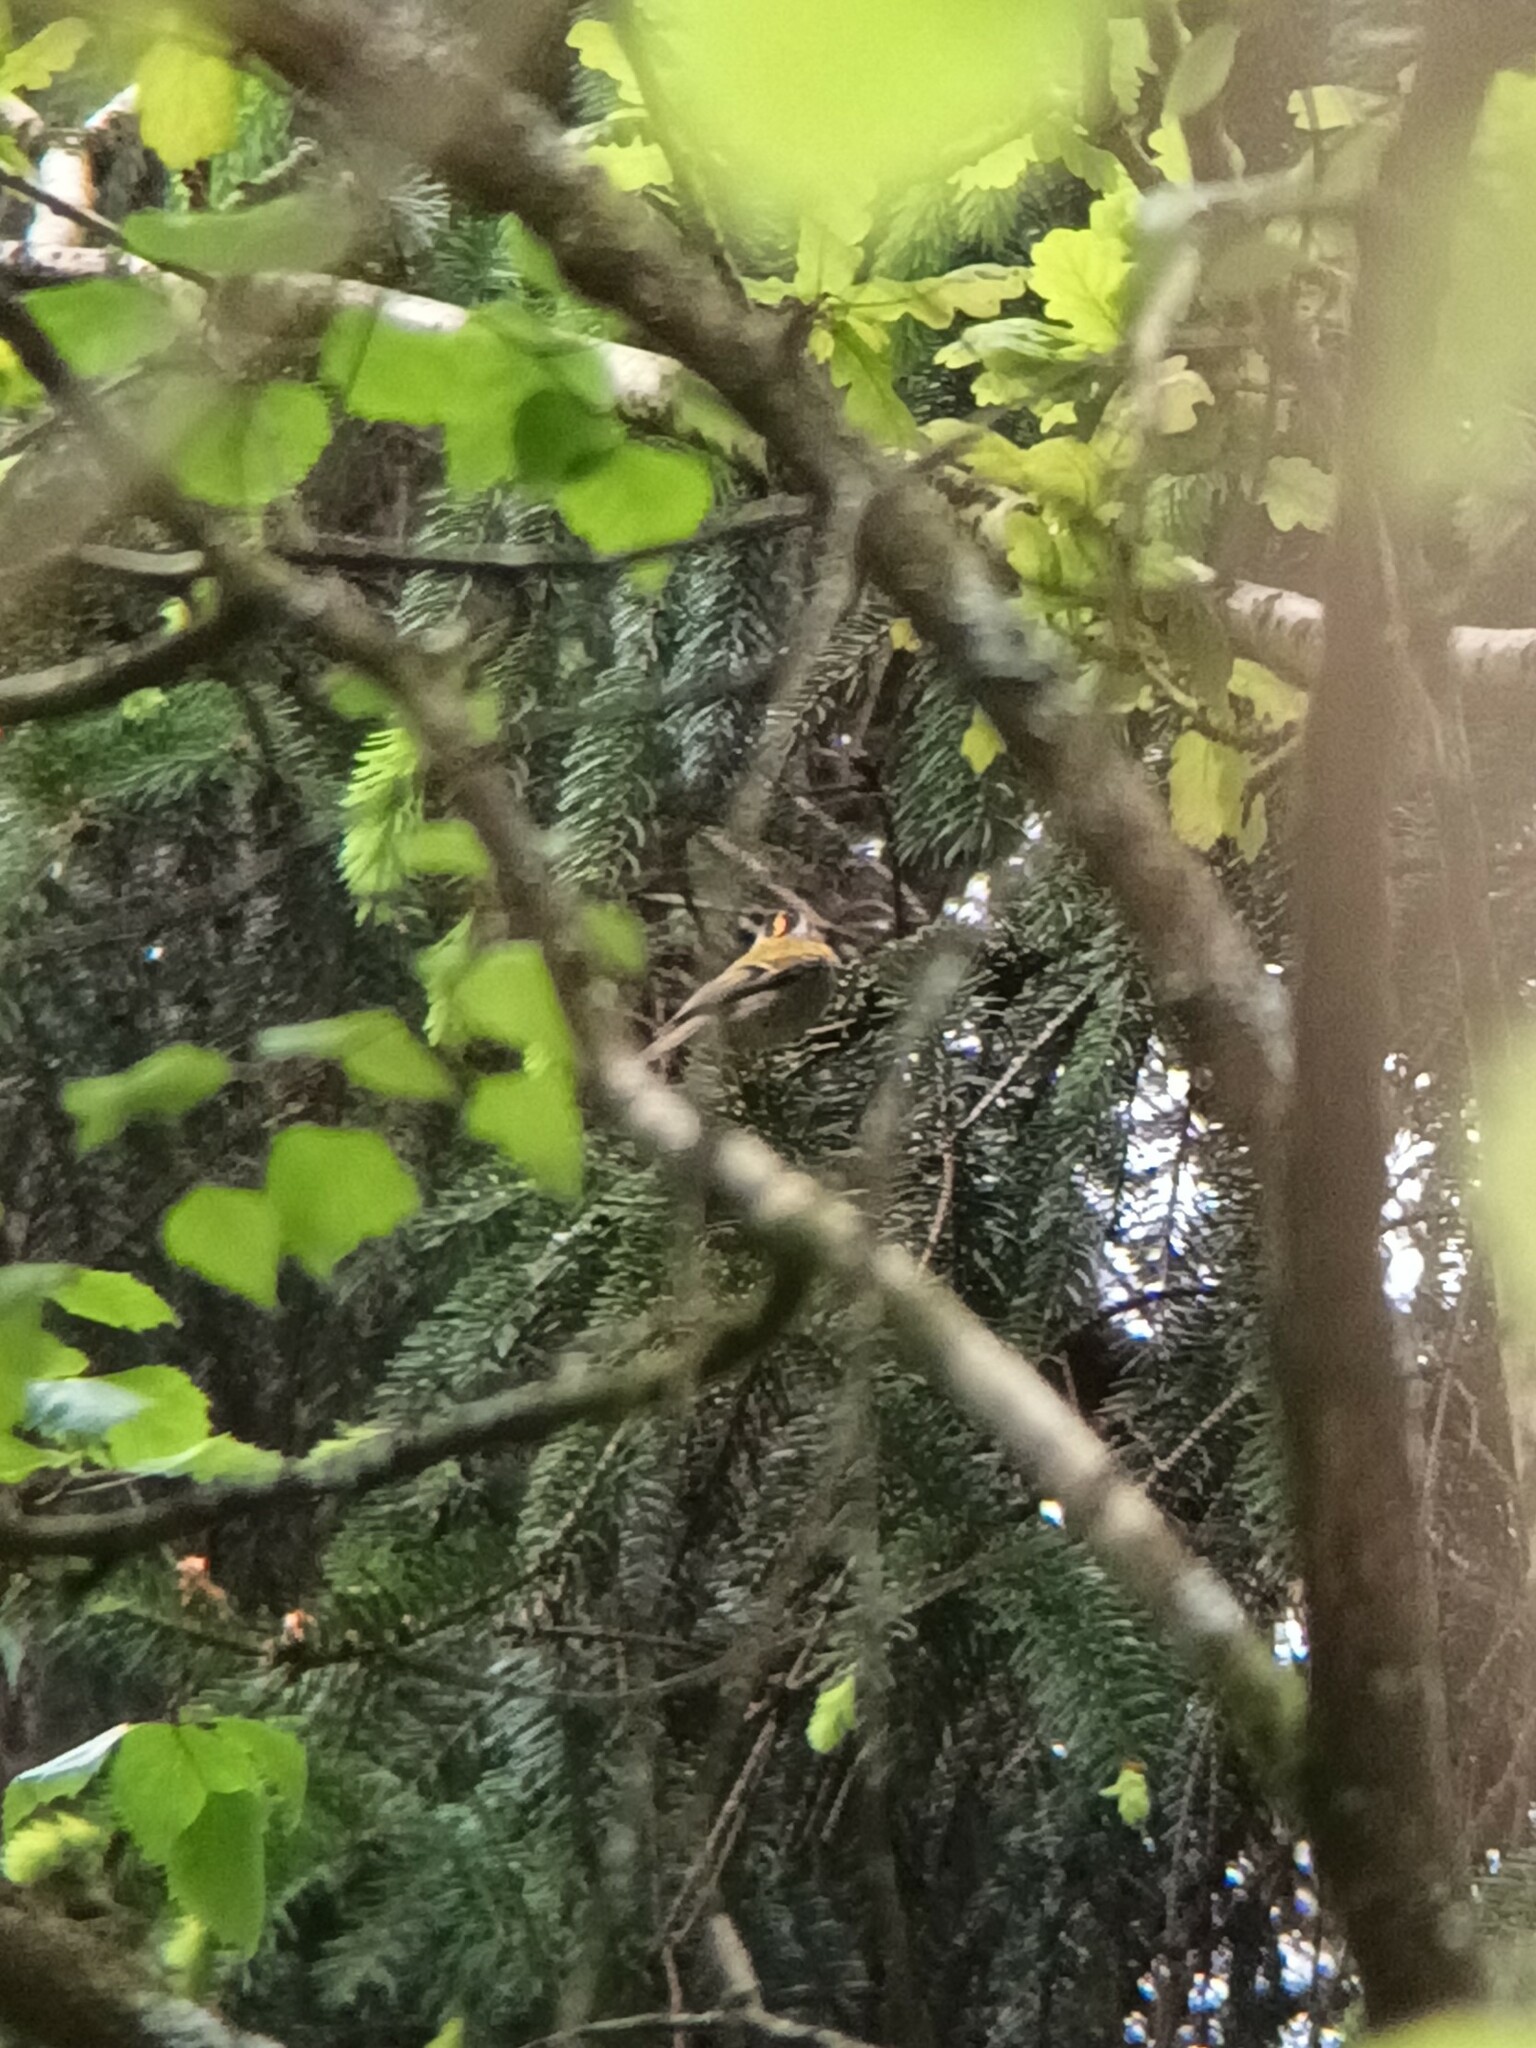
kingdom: Animalia
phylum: Chordata
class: Aves
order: Passeriformes
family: Regulidae
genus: Regulus
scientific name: Regulus ignicapilla
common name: Firecrest
